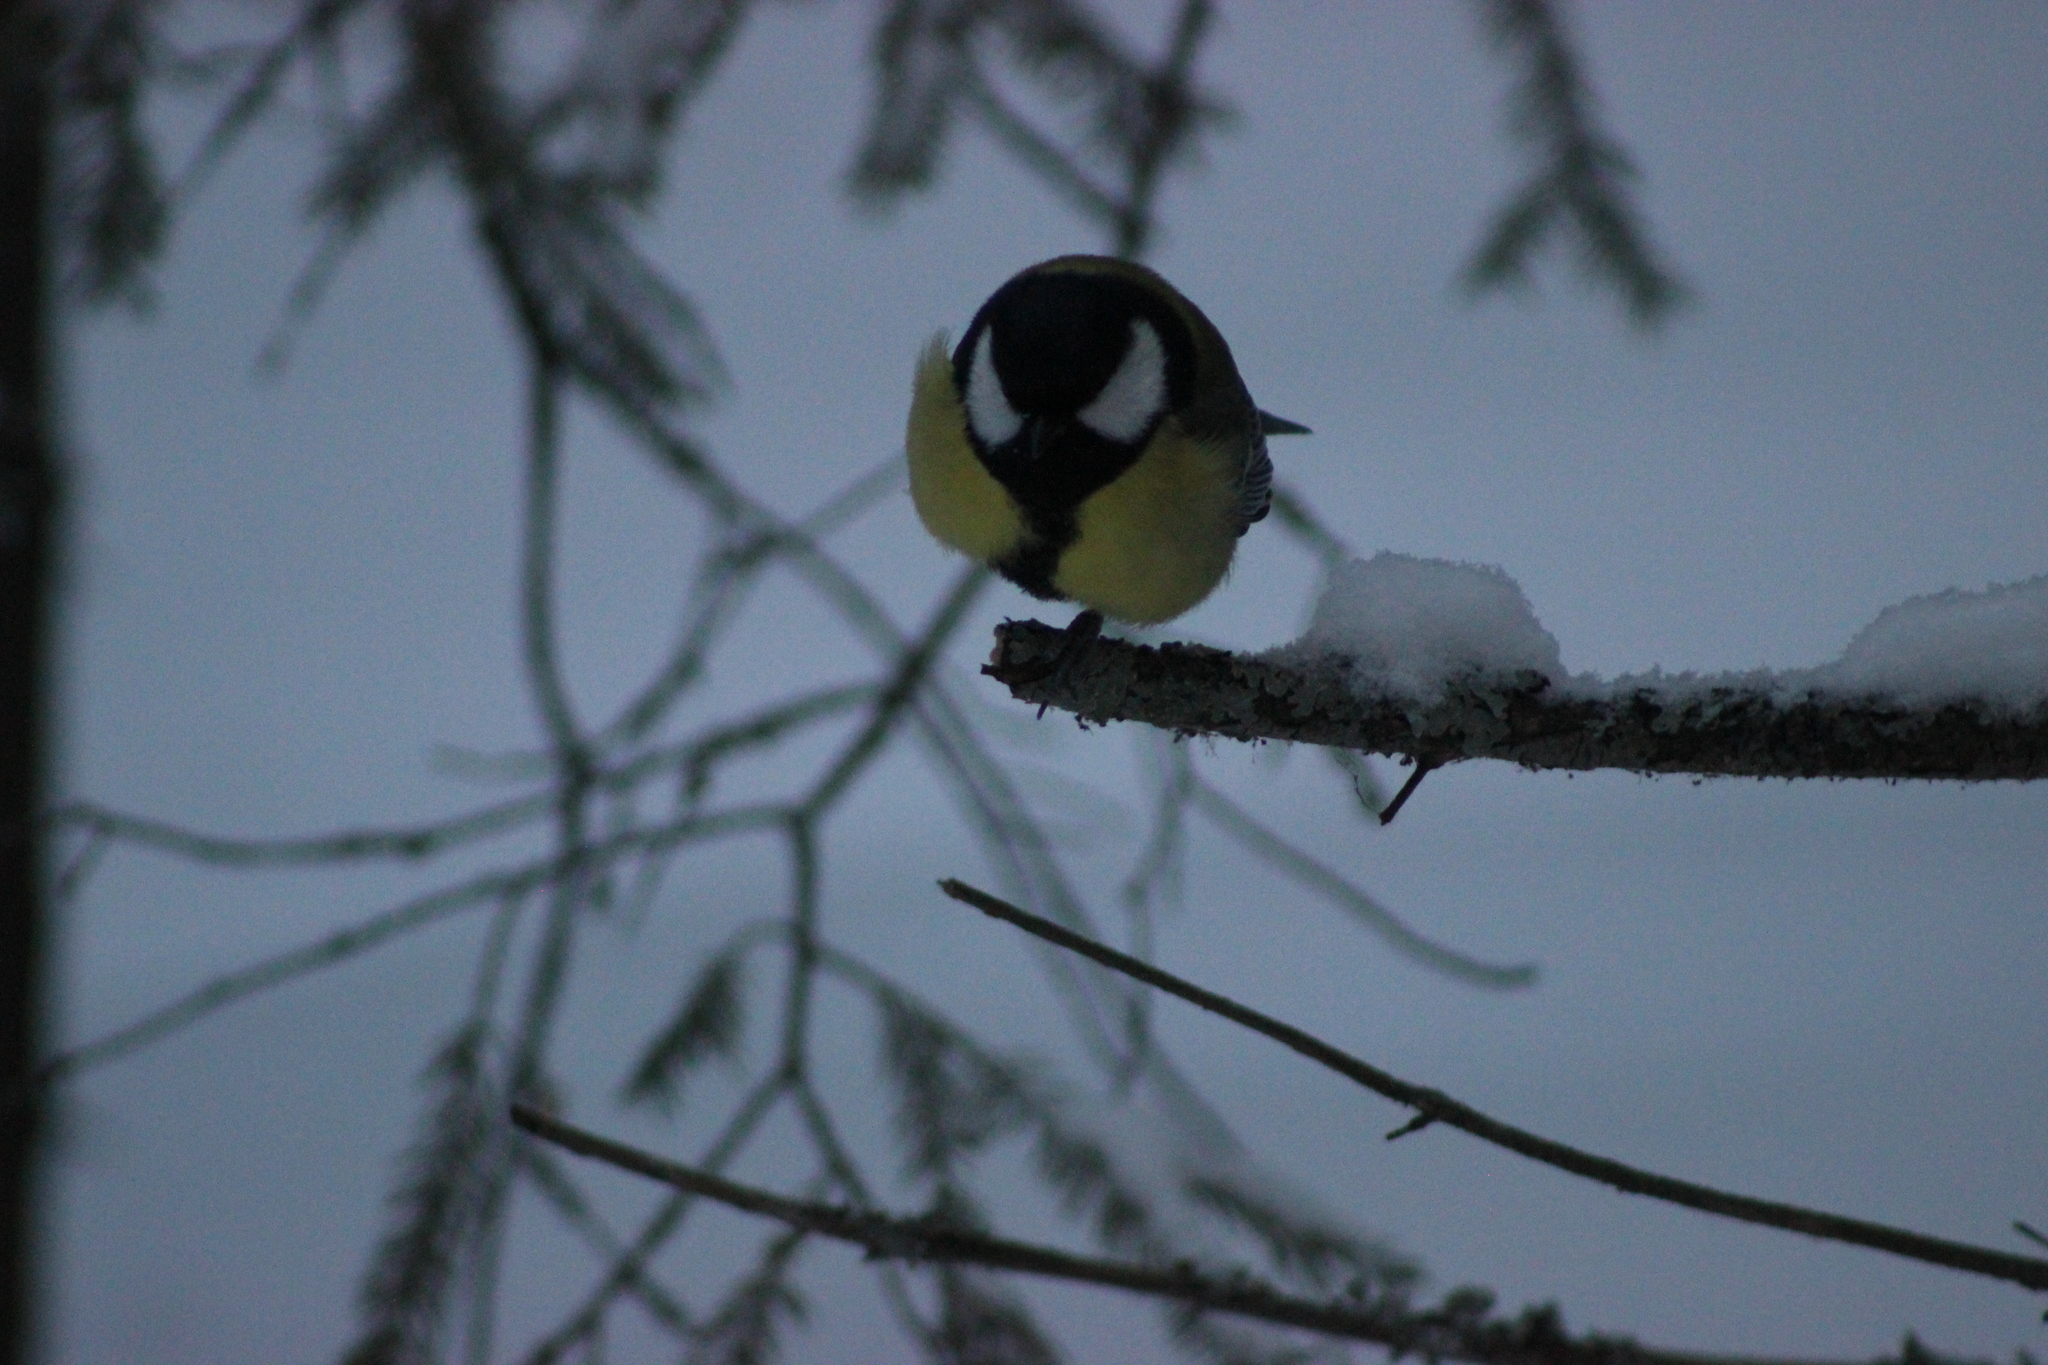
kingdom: Animalia
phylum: Chordata
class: Aves
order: Passeriformes
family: Paridae
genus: Parus
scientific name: Parus major
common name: Great tit
